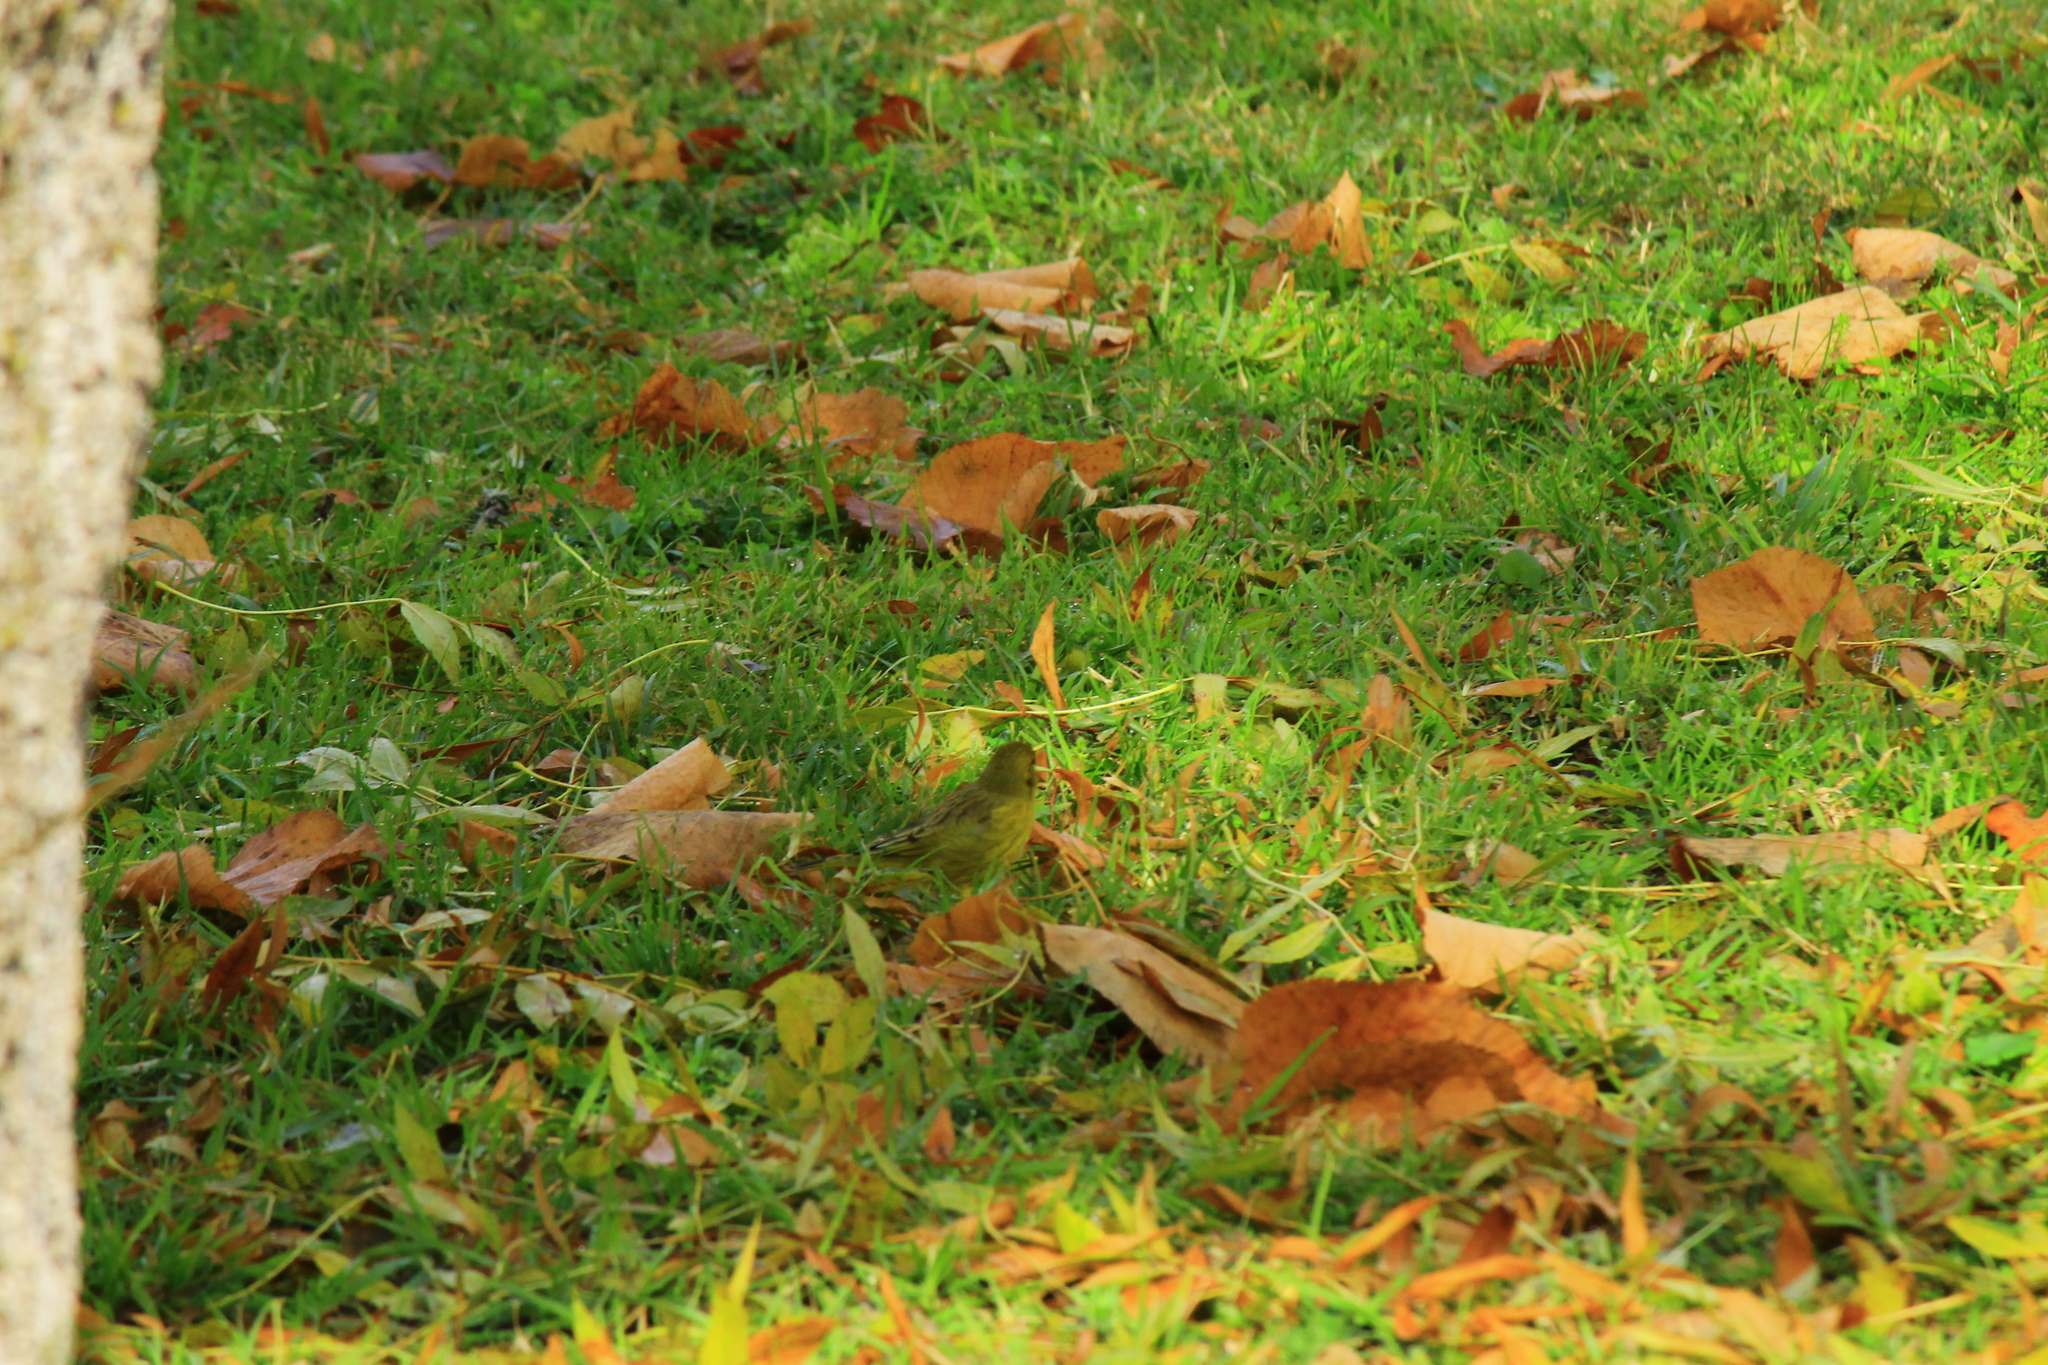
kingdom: Animalia
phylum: Chordata
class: Aves
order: Passeriformes
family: Thraupidae
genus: Sicalis
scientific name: Sicalis flaveola
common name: Saffron finch
